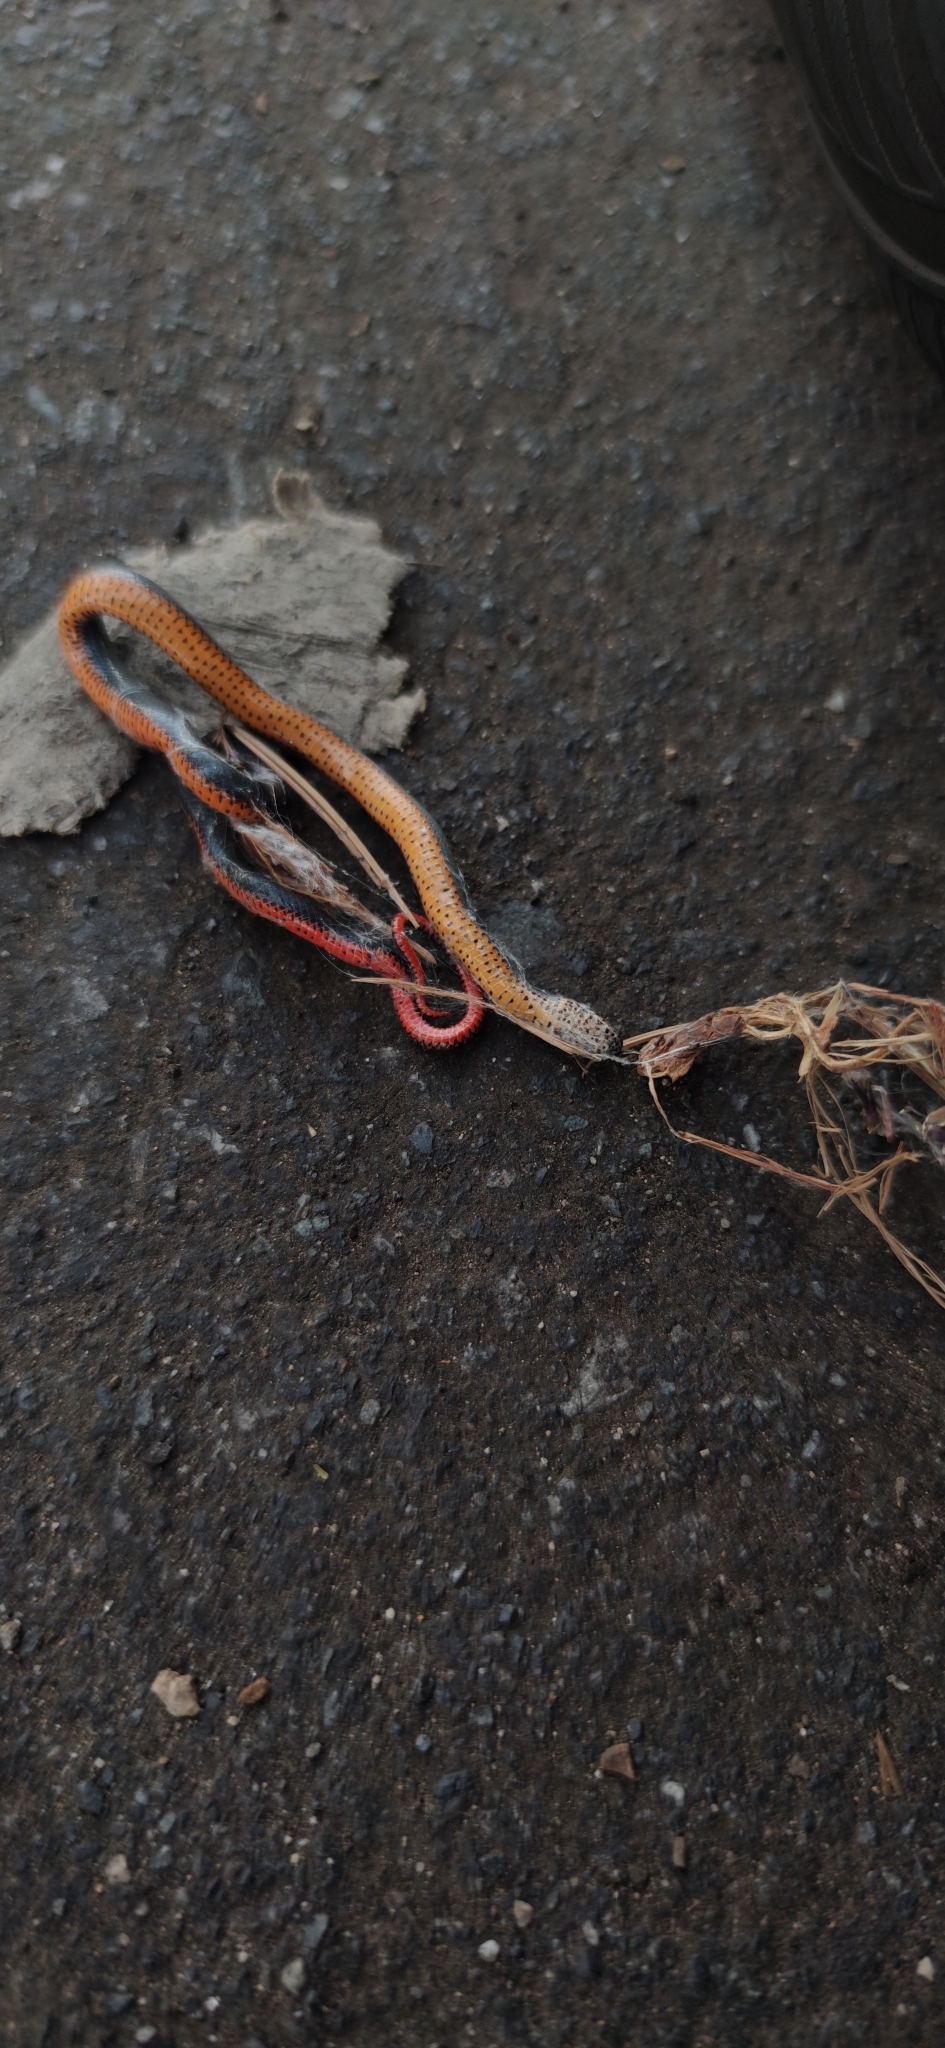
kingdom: Animalia
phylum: Chordata
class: Squamata
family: Colubridae
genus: Diadophis
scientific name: Diadophis punctatus
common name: Ringneck snake
